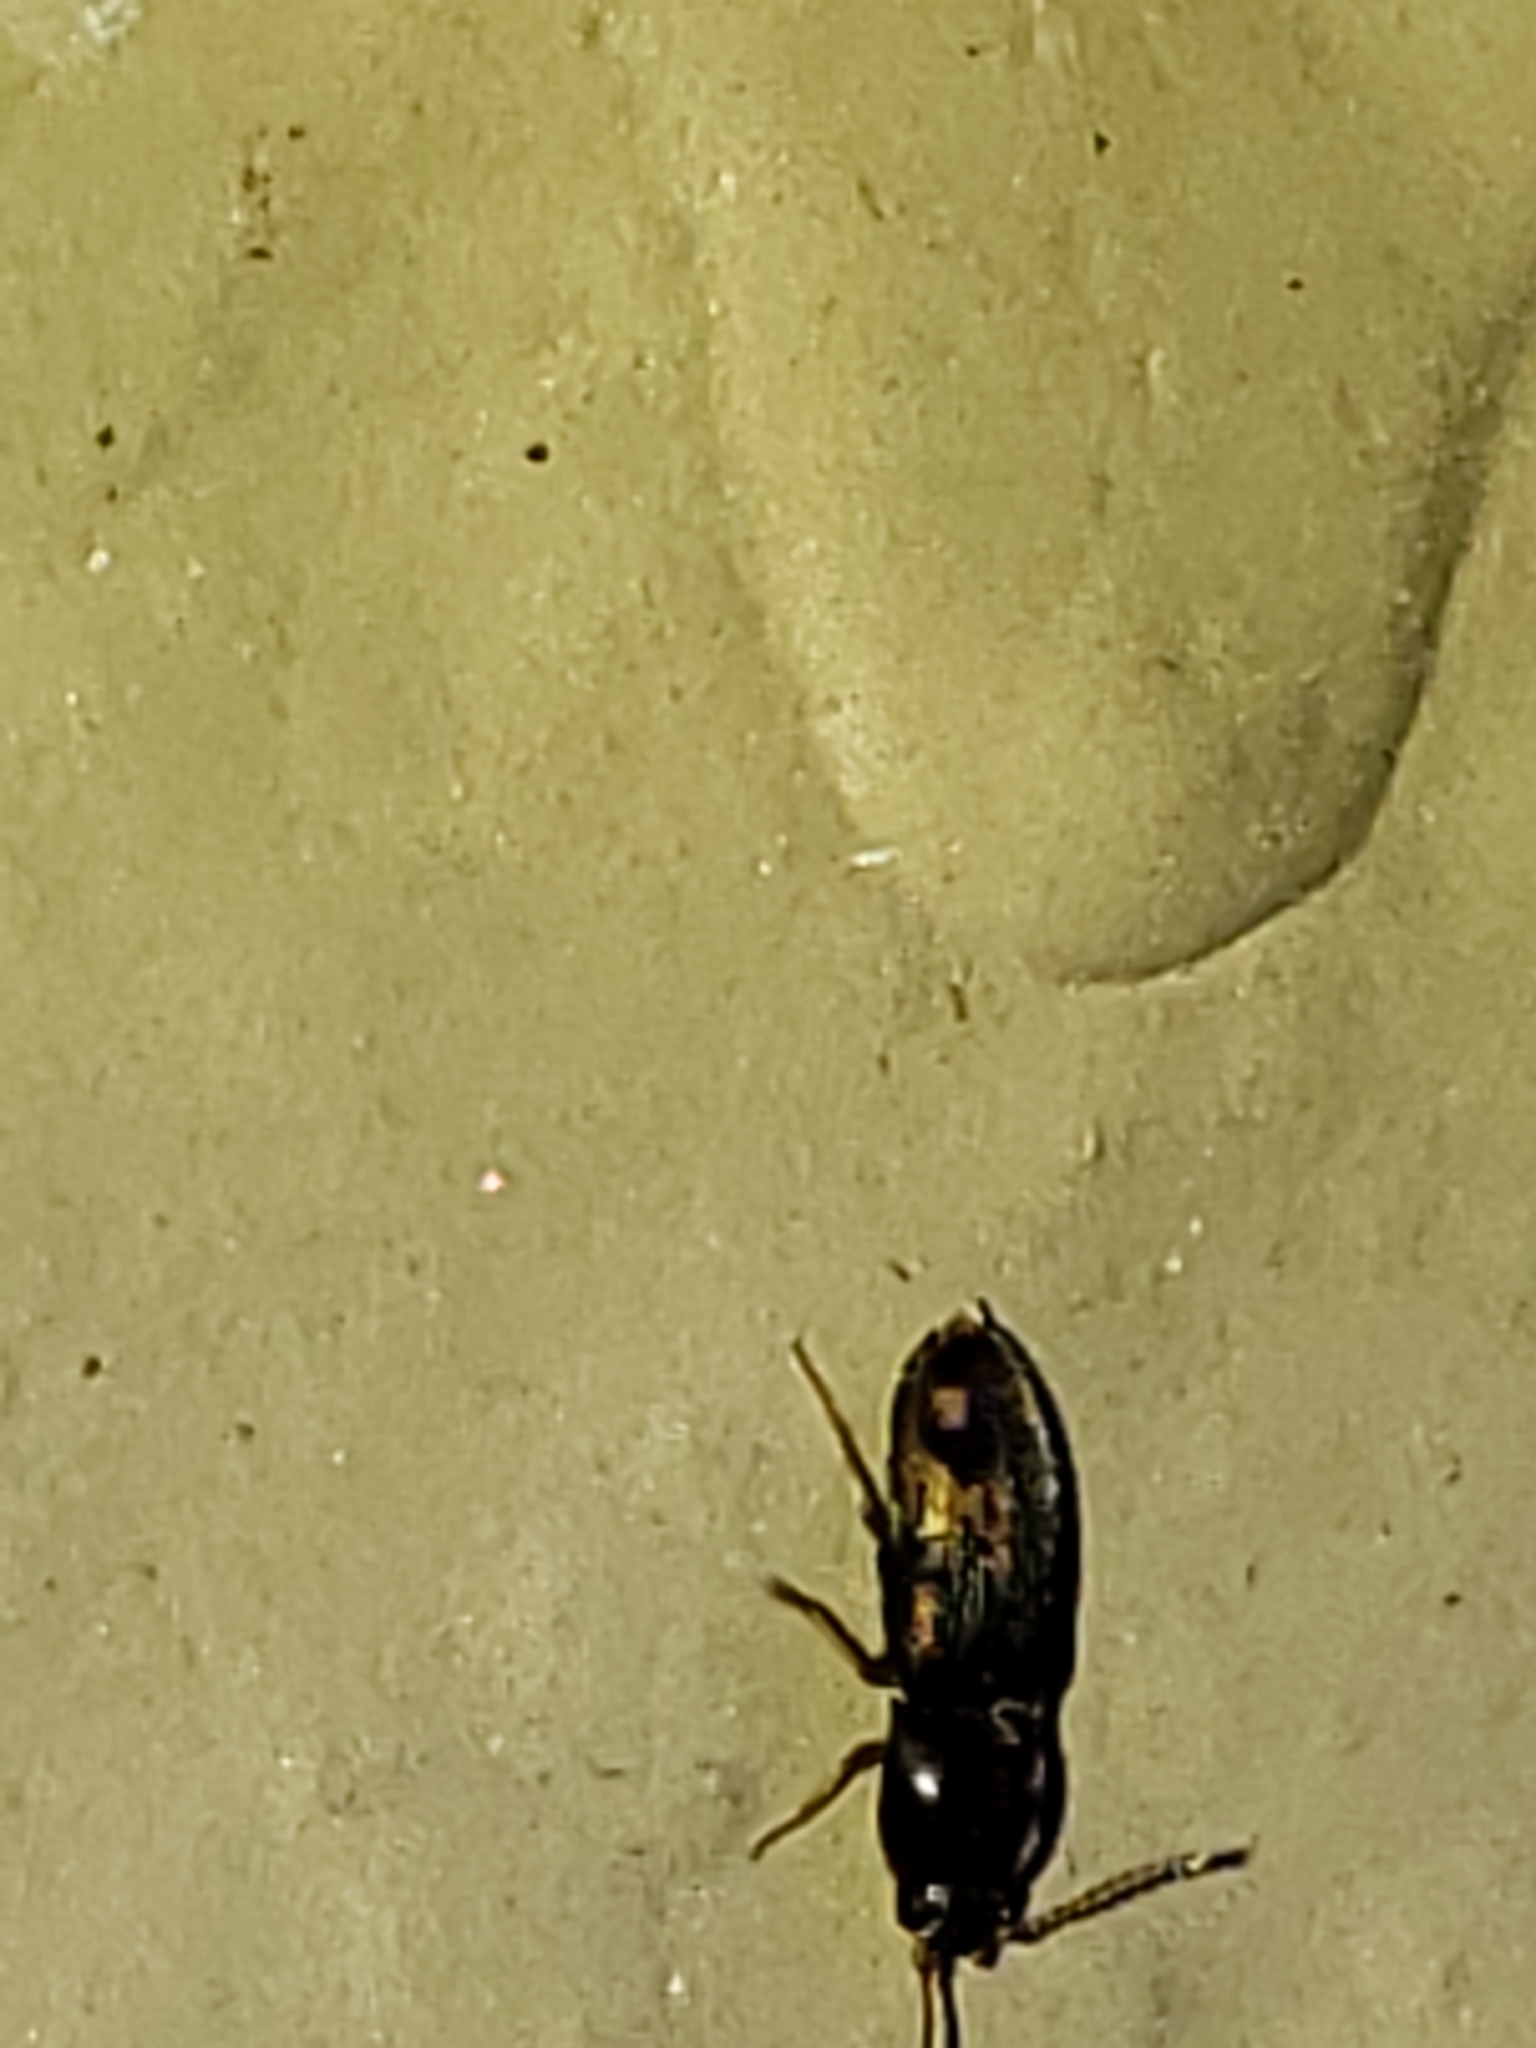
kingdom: Animalia
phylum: Arthropoda
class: Insecta
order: Coleoptera
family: Elateridae
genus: Monocrepidius
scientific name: Monocrepidius bellus
